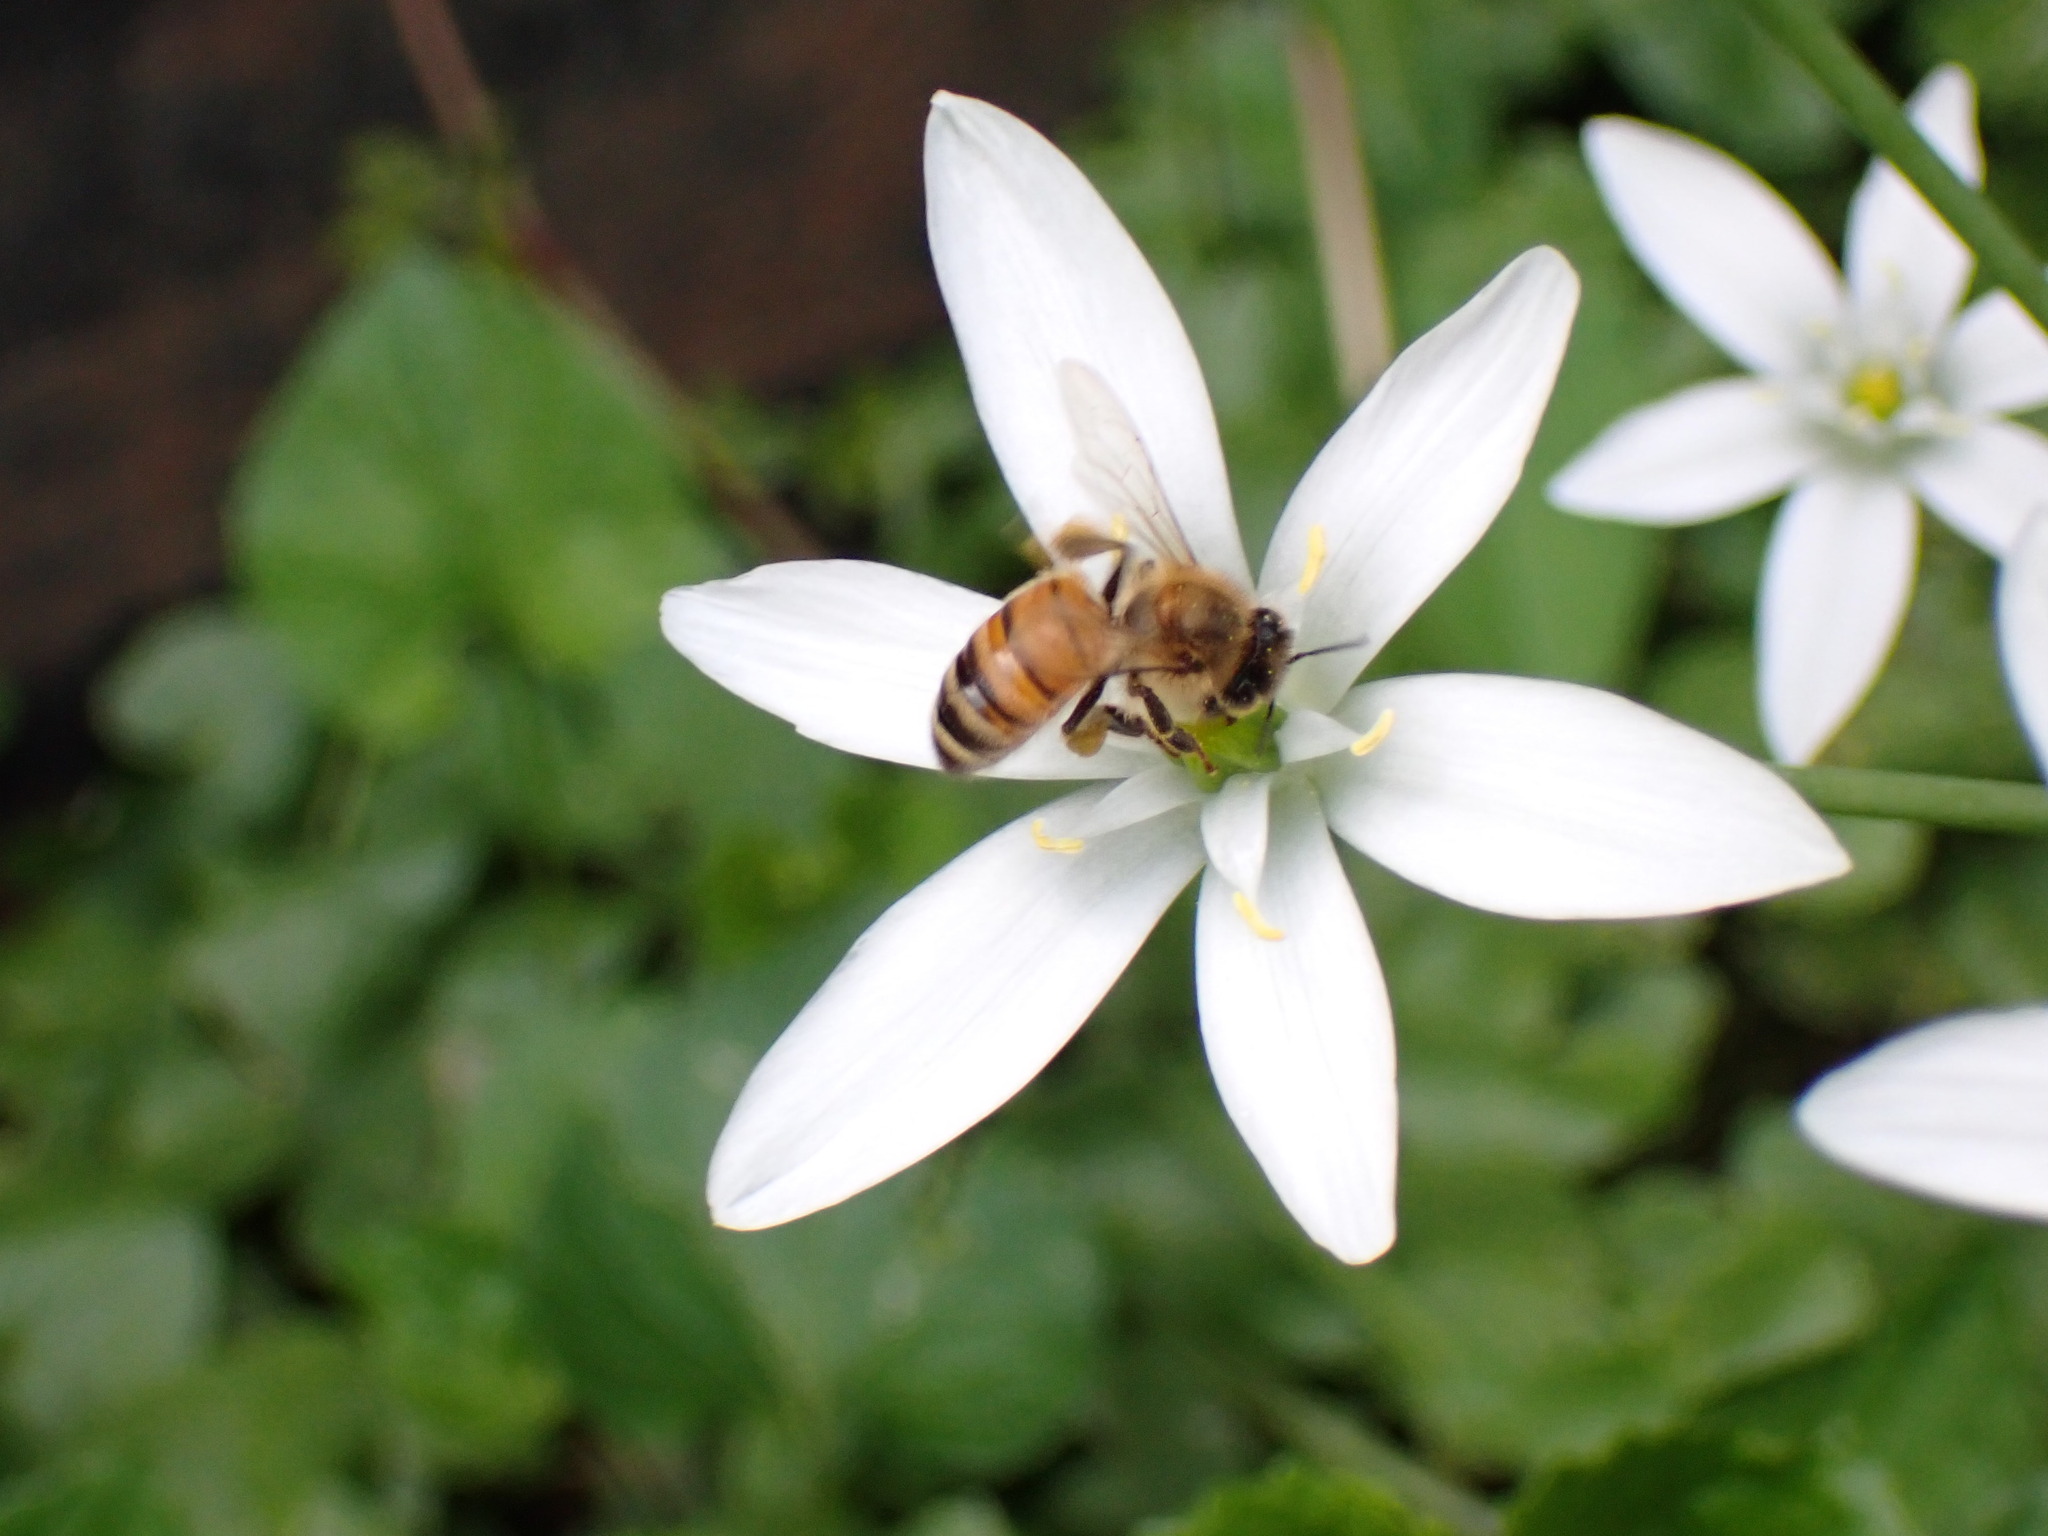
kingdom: Animalia
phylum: Arthropoda
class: Insecta
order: Hymenoptera
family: Apidae
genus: Apis
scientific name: Apis mellifera
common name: Honey bee
